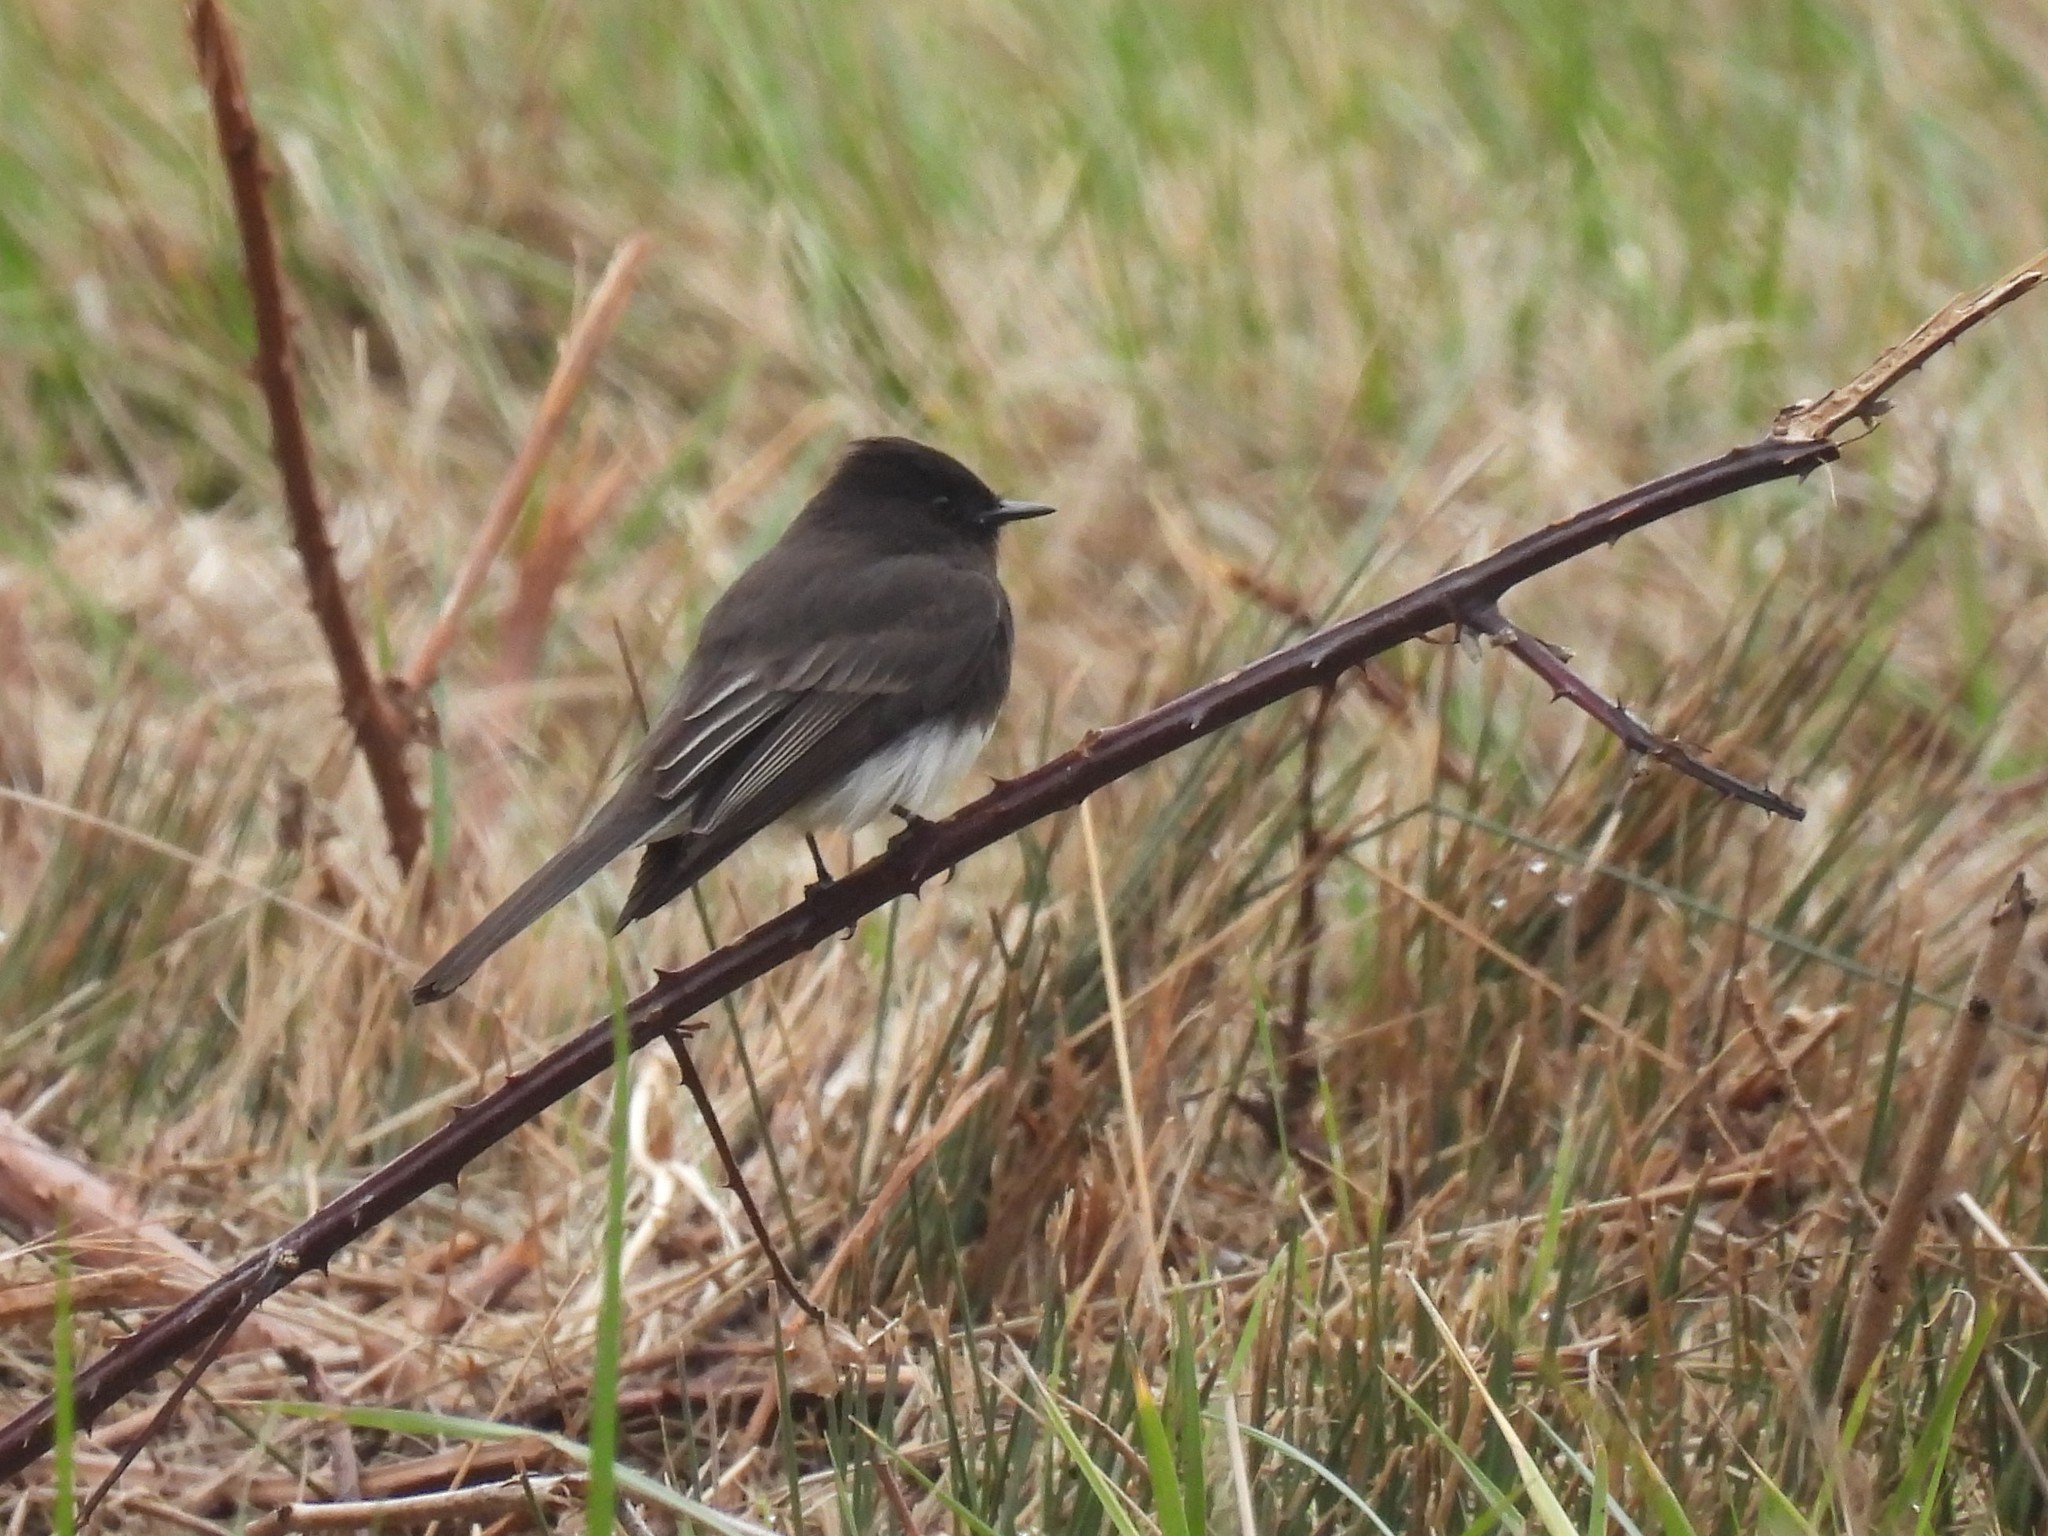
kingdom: Animalia
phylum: Chordata
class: Aves
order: Passeriformes
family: Tyrannidae
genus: Sayornis
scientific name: Sayornis nigricans
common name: Black phoebe
